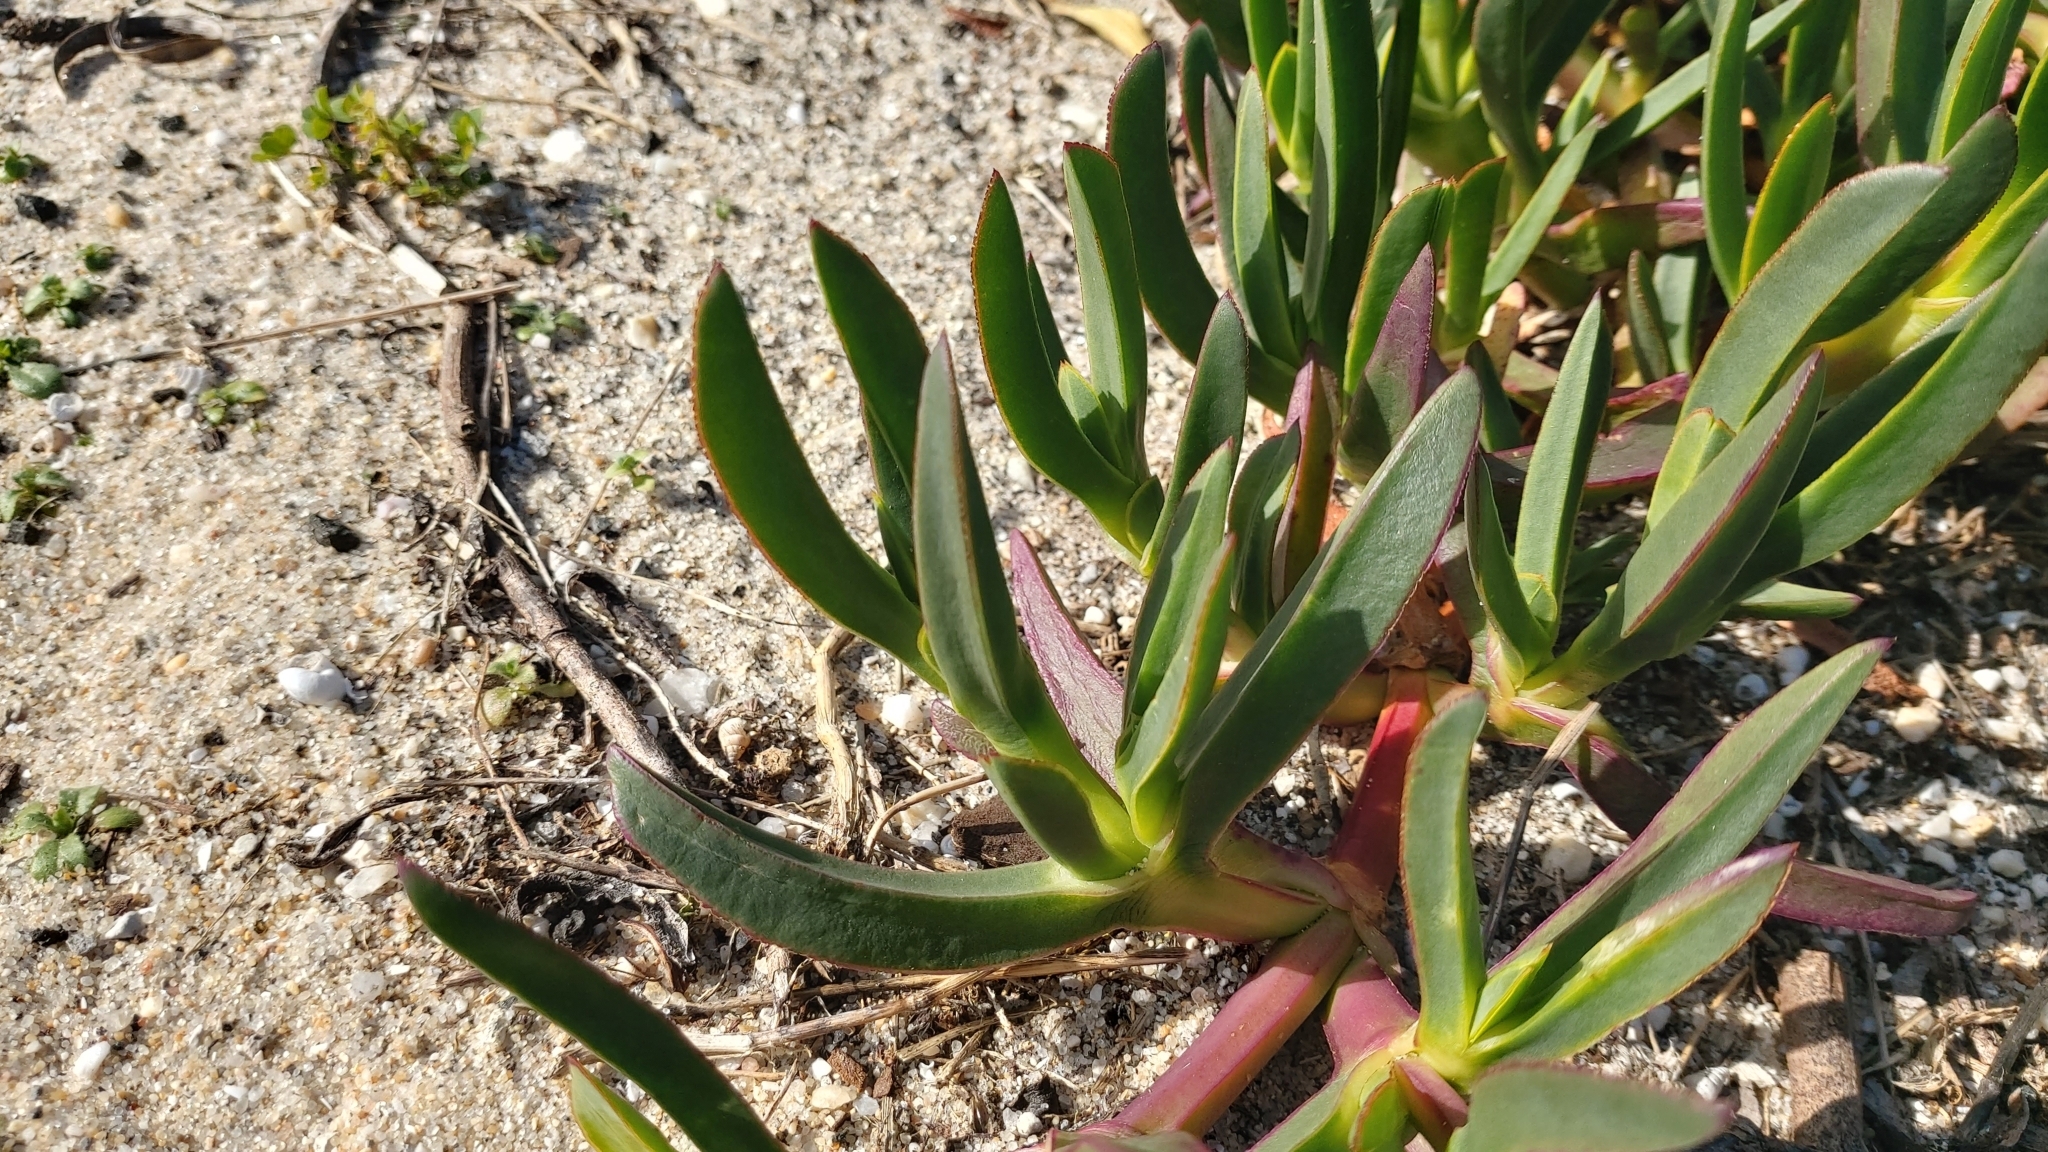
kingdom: Plantae
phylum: Tracheophyta
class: Magnoliopsida
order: Caryophyllales
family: Aizoaceae
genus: Carpobrotus
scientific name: Carpobrotus acinaciformis
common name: Sally-my-handsome
